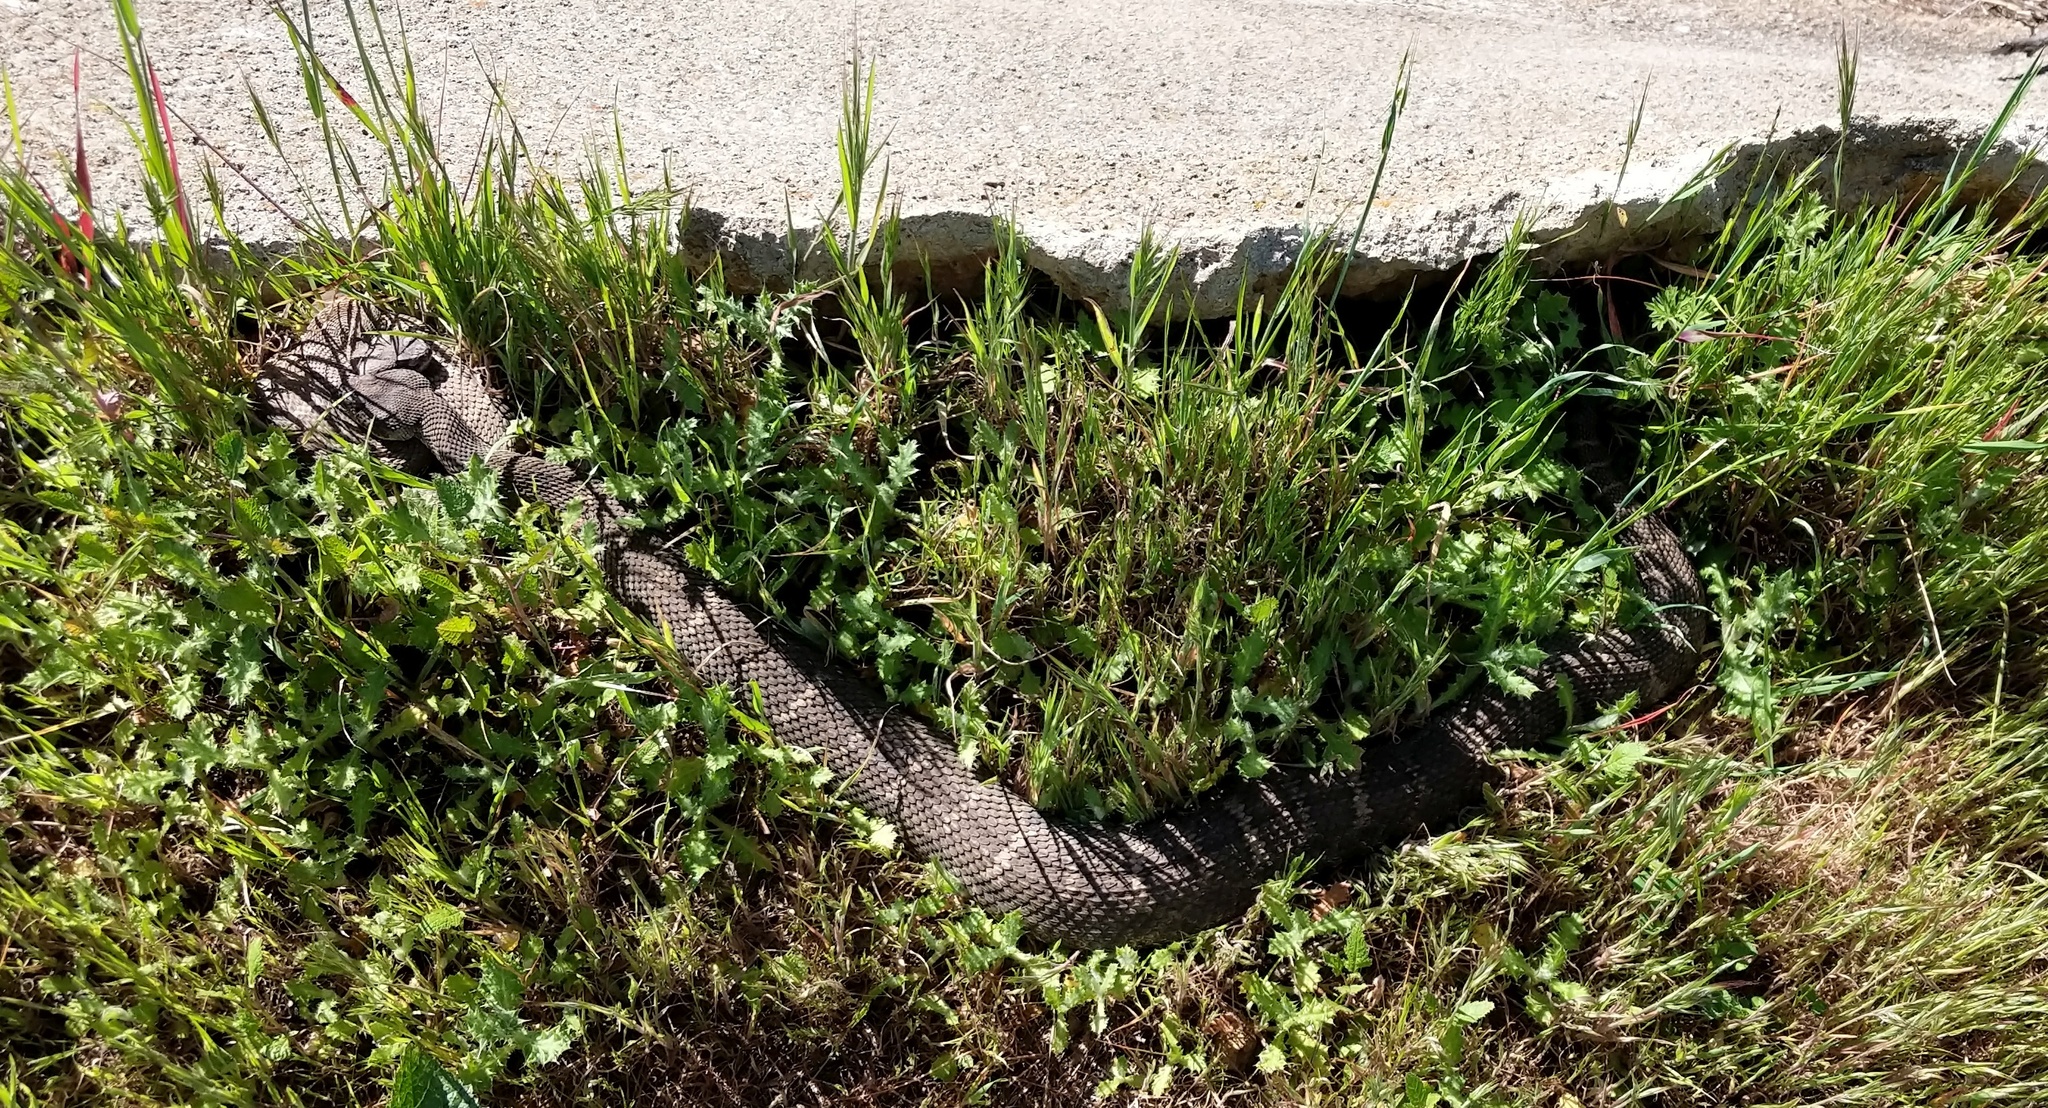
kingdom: Animalia
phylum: Chordata
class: Squamata
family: Viperidae
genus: Crotalus
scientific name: Crotalus oreganus
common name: Abyssus
